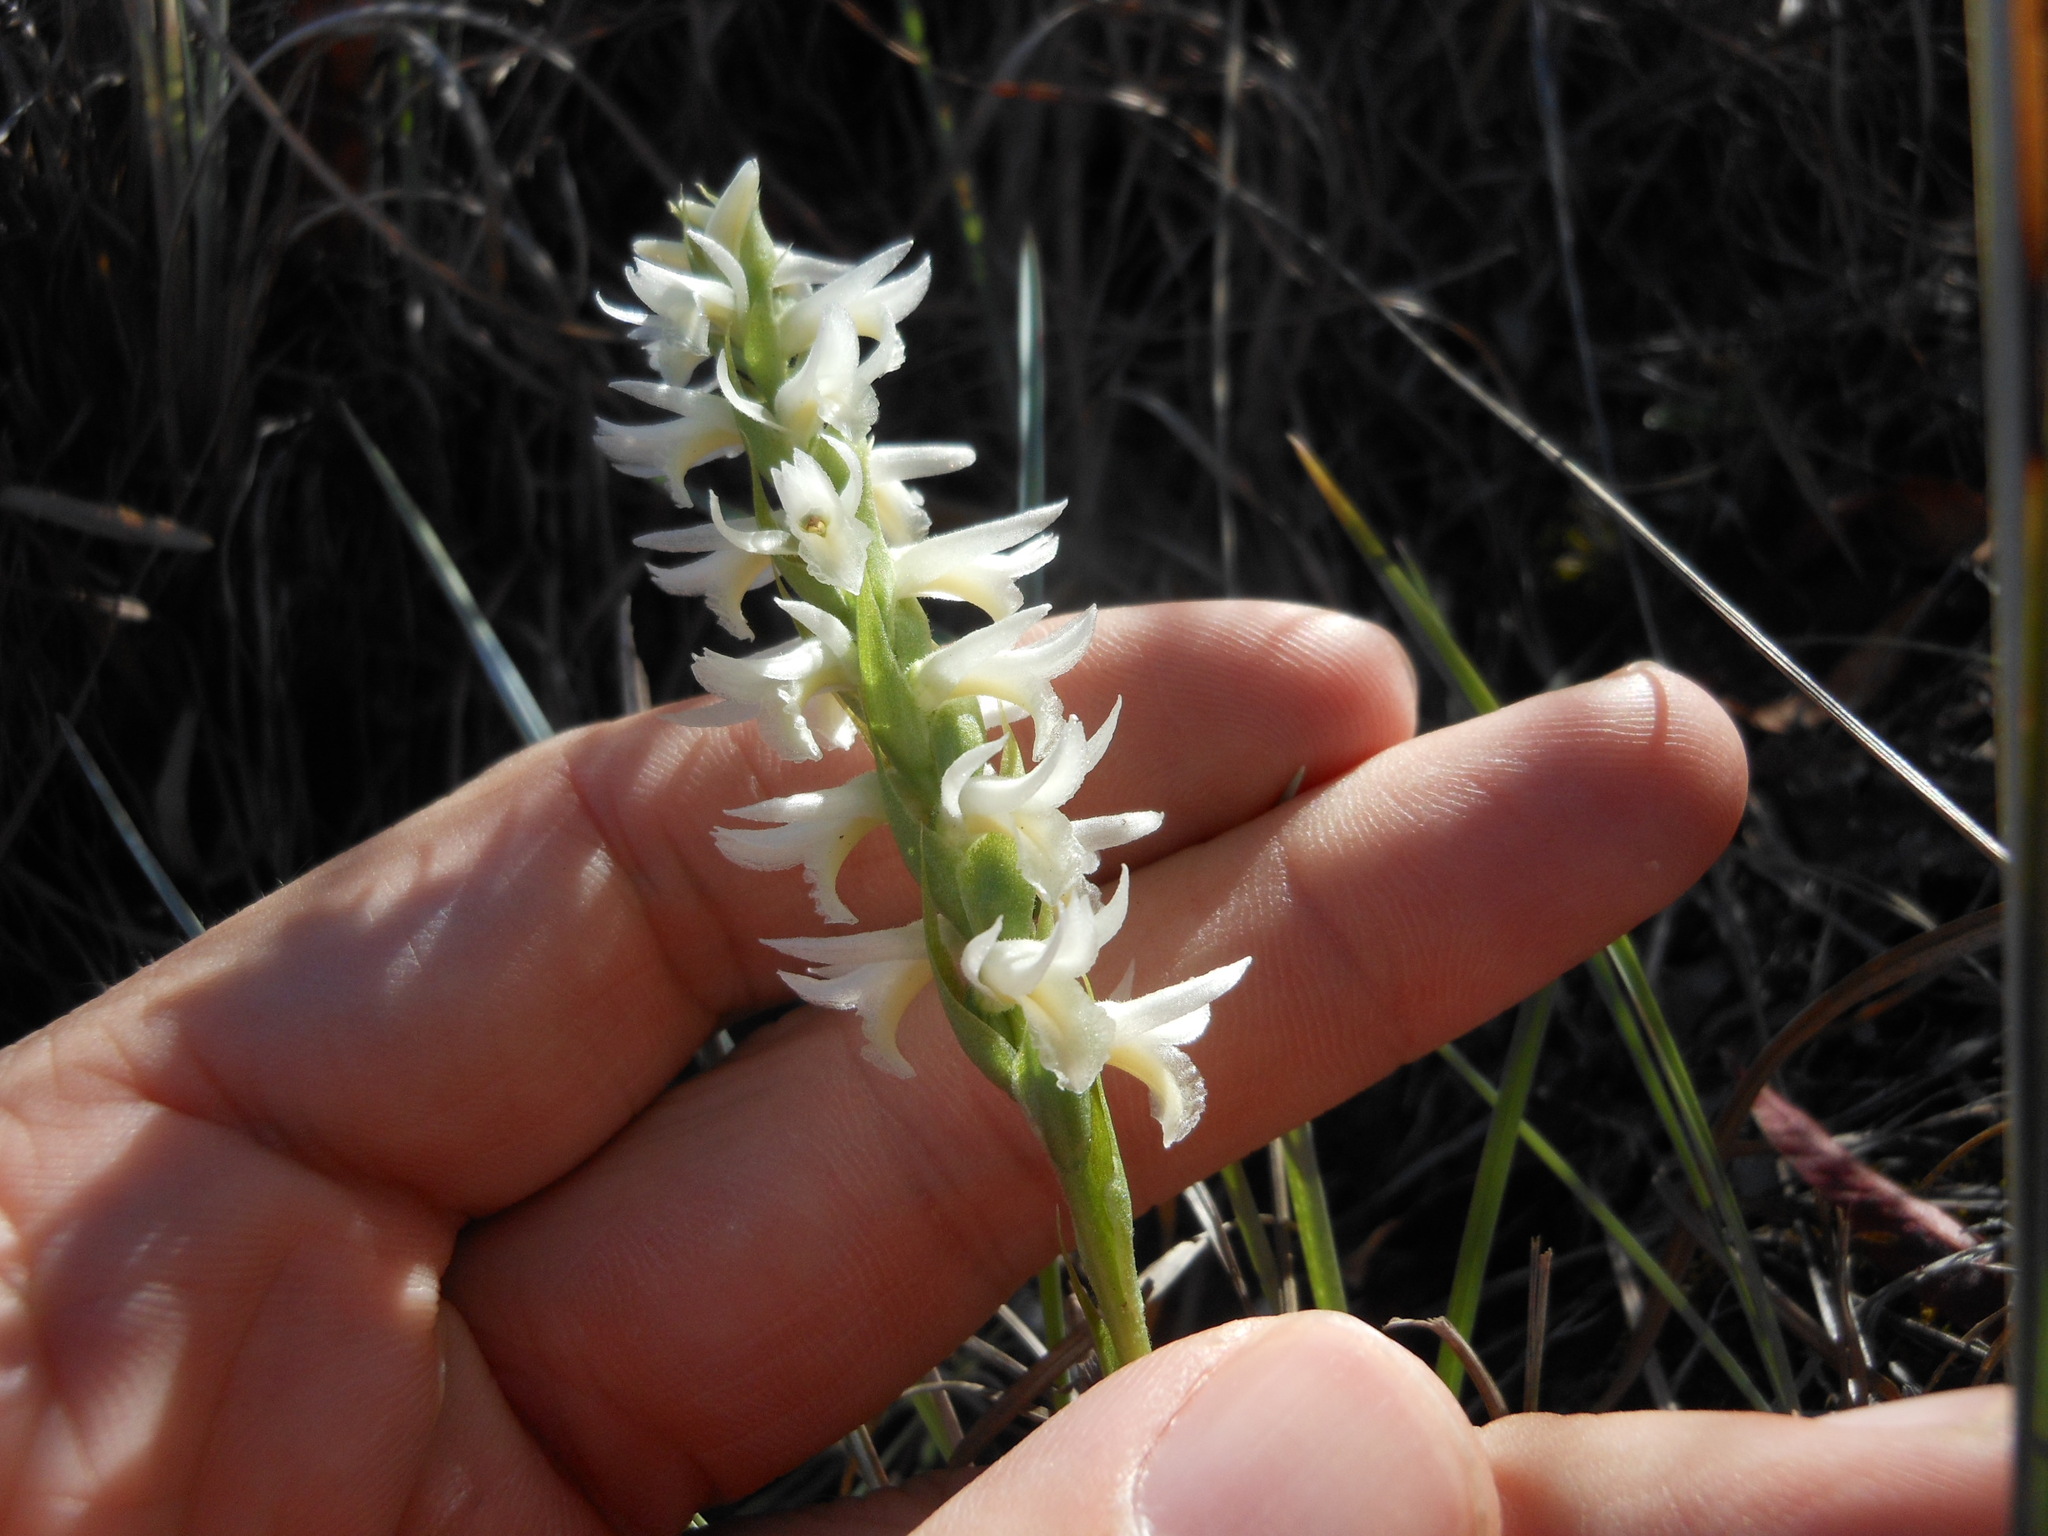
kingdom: Plantae
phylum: Tracheophyta
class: Liliopsida
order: Asparagales
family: Orchidaceae
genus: Spiranthes
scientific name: Spiranthes magnicamporum
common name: Great plains ladies'-tresses
